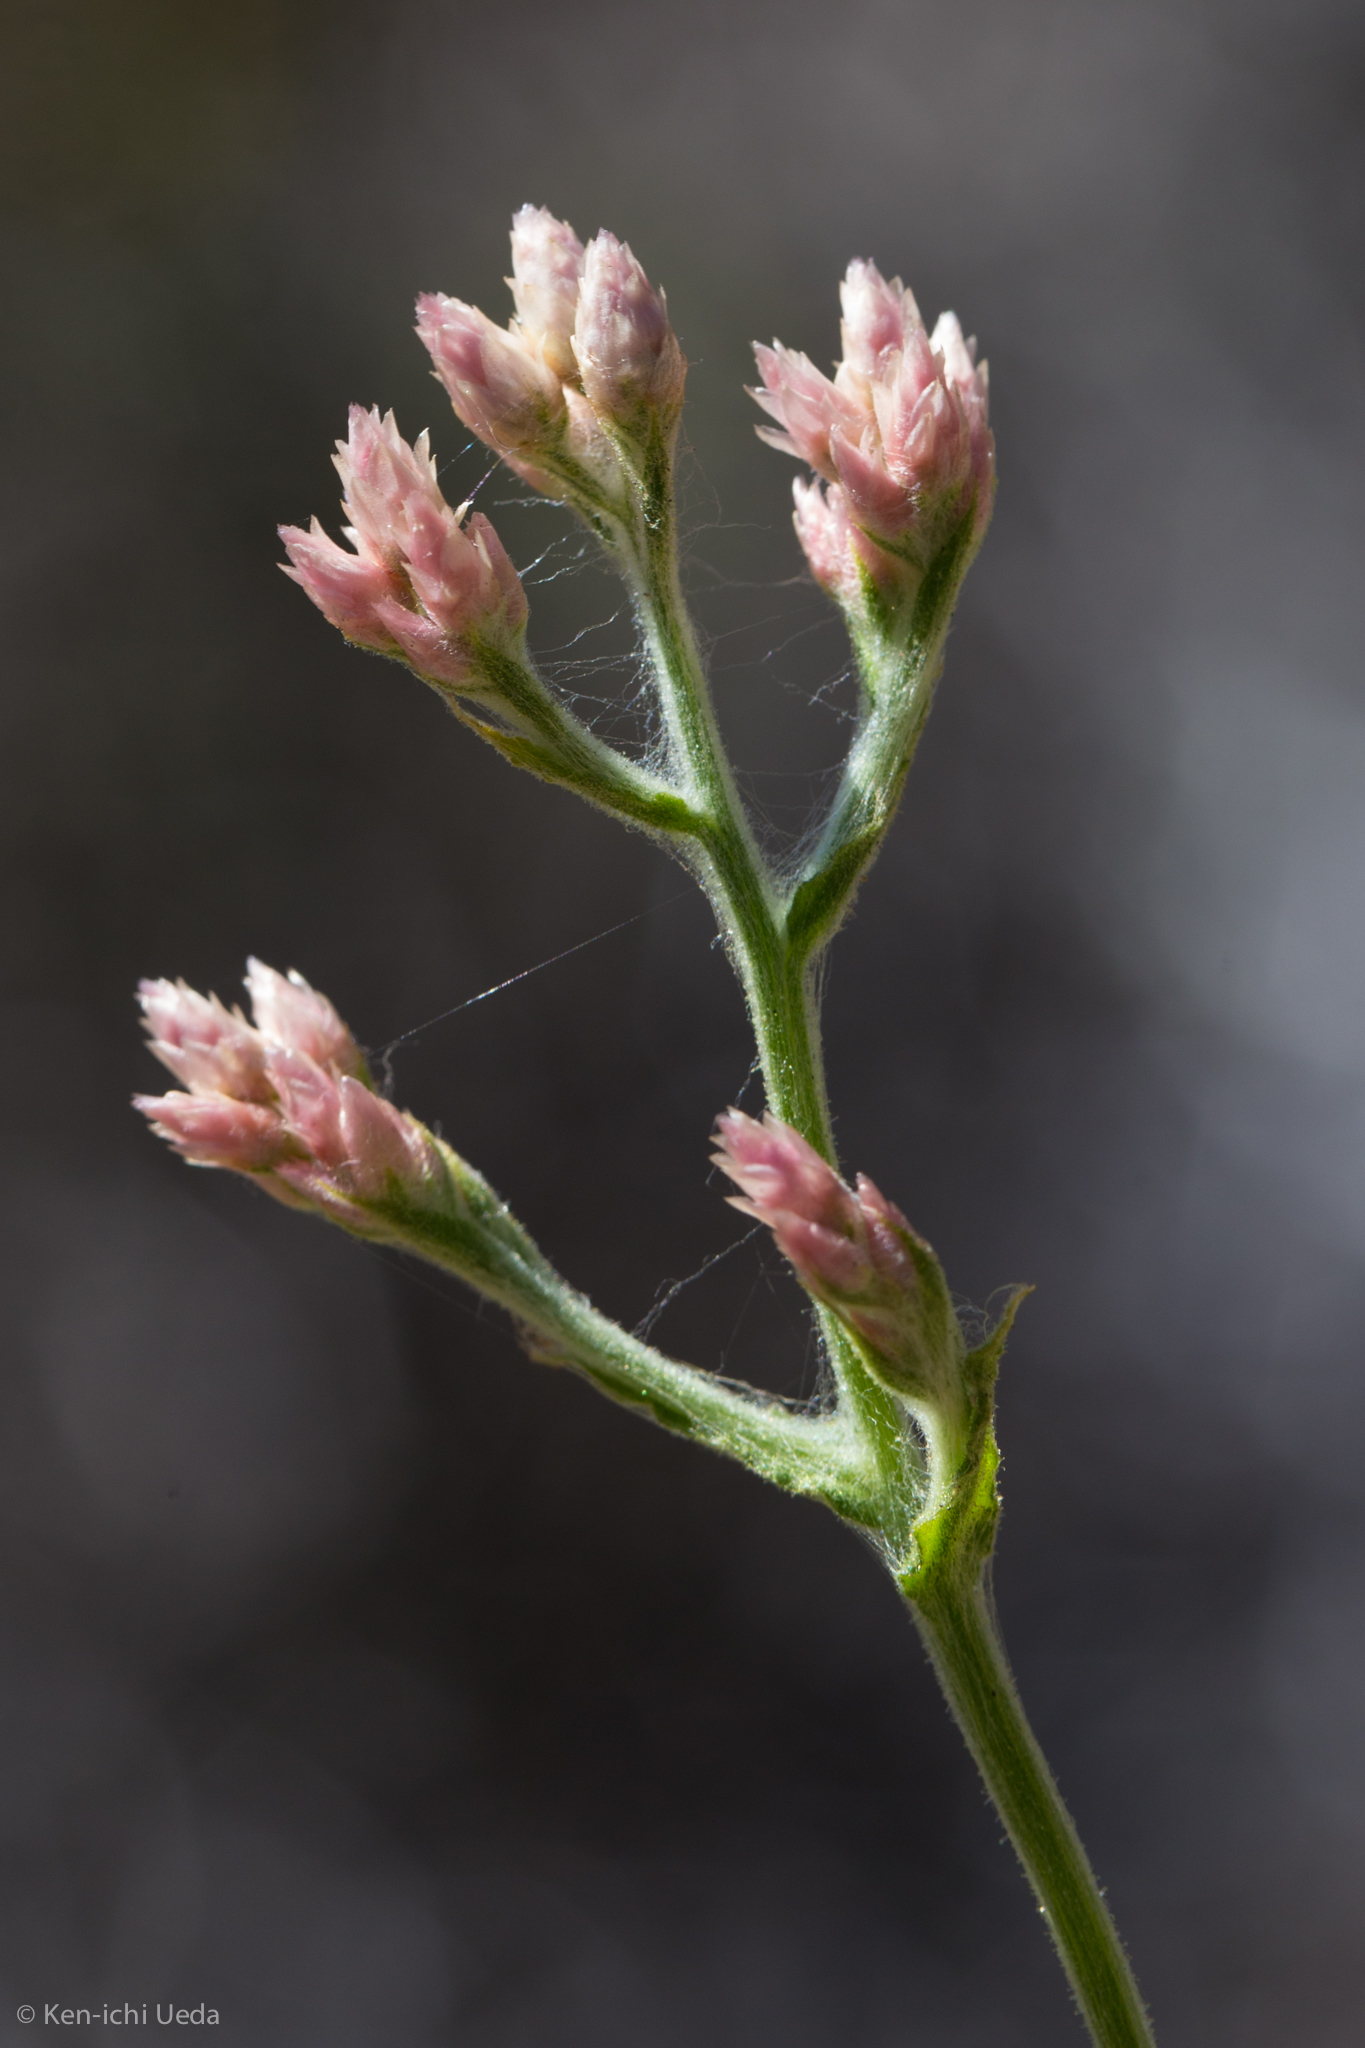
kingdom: Plantae
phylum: Tracheophyta
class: Magnoliopsida
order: Asterales
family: Asteraceae
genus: Pseudognaphalium
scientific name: Pseudognaphalium ramosissimum
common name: Pink rabbit-tobacco
